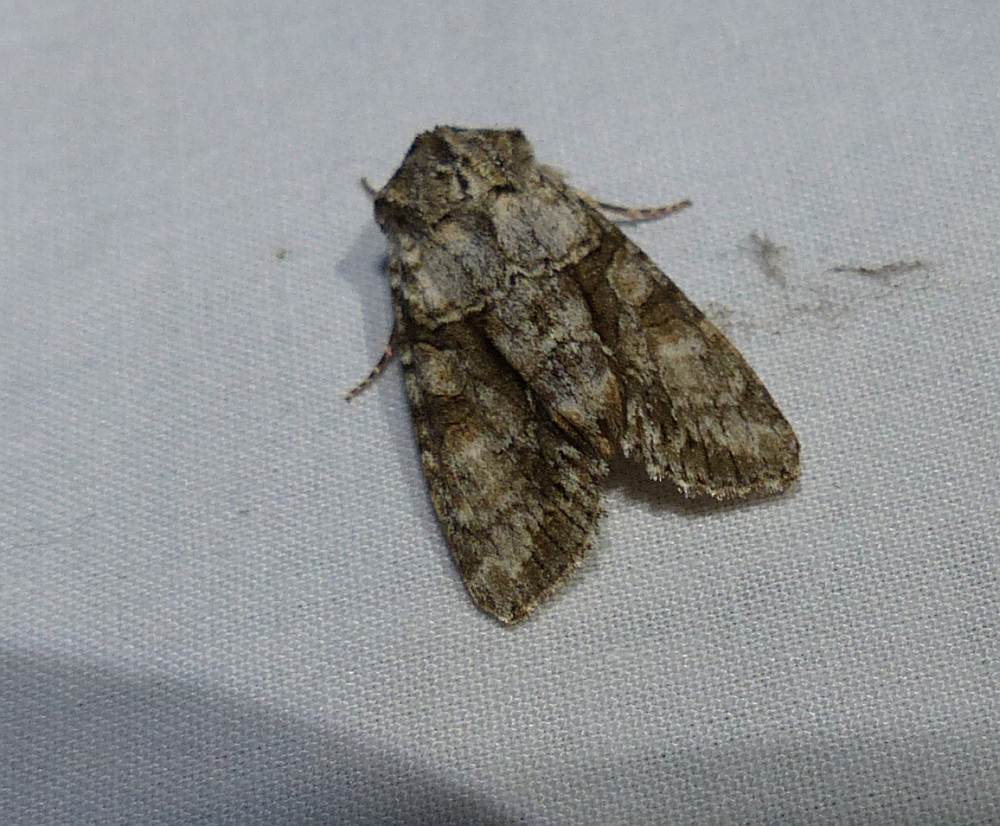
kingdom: Animalia
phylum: Arthropoda
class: Insecta
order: Lepidoptera
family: Noctuidae
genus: Achatia
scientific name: Achatia distincta
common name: Distinct quaker
